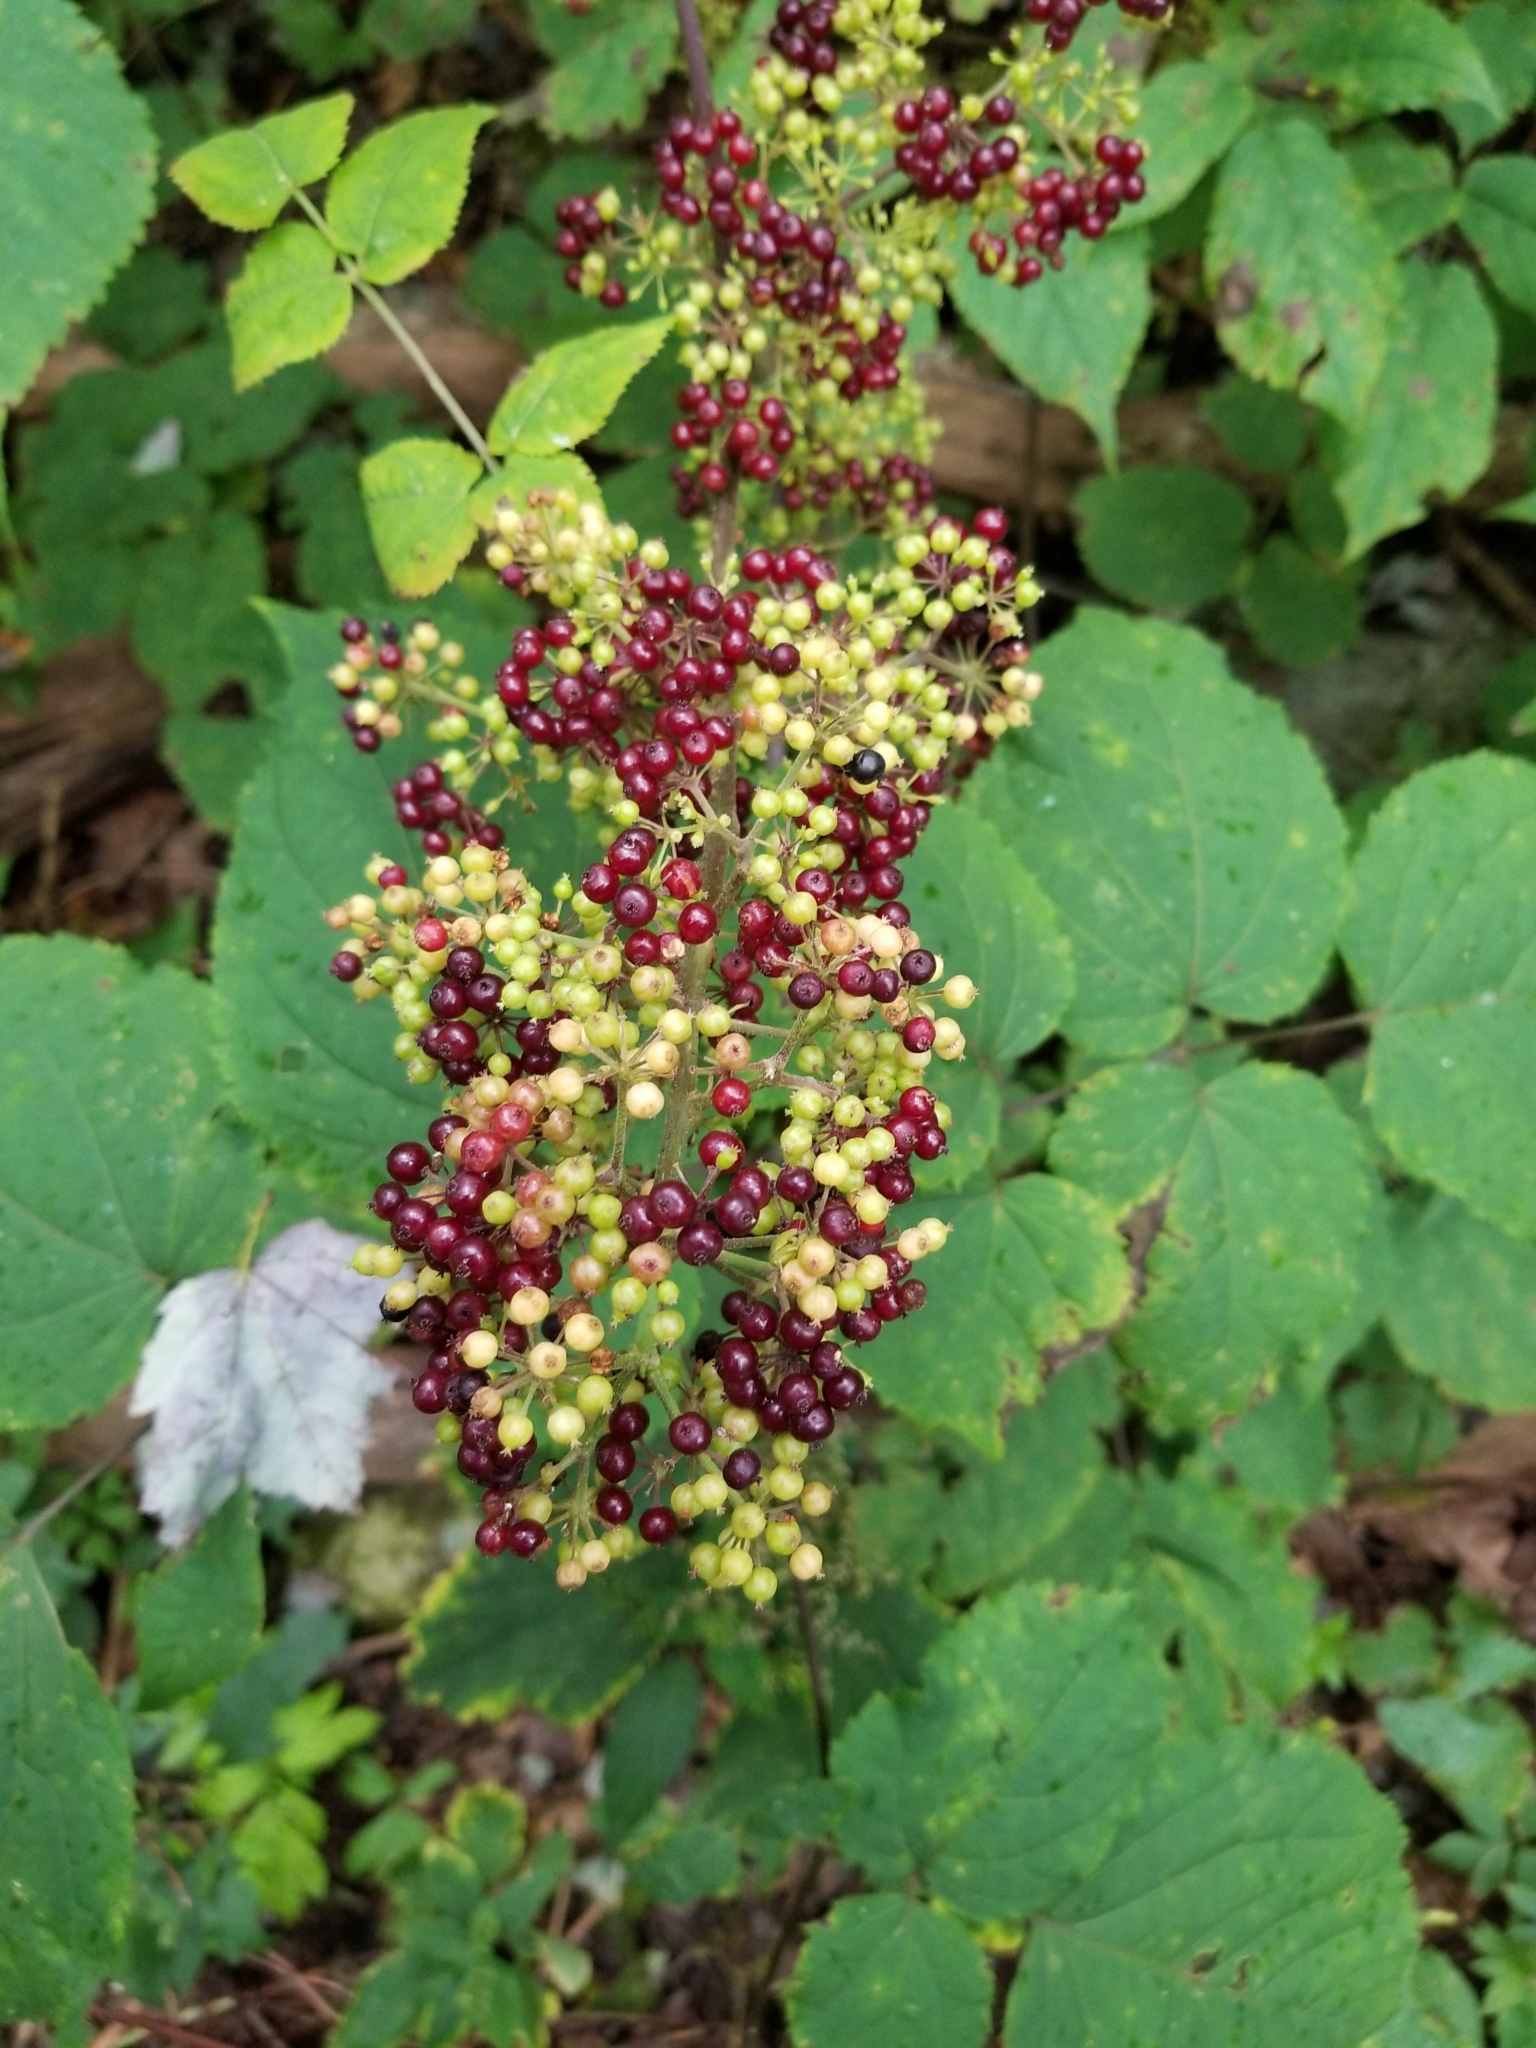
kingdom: Plantae
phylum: Tracheophyta
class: Magnoliopsida
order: Apiales
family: Araliaceae
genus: Aralia
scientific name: Aralia racemosa
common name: American-spikenard
